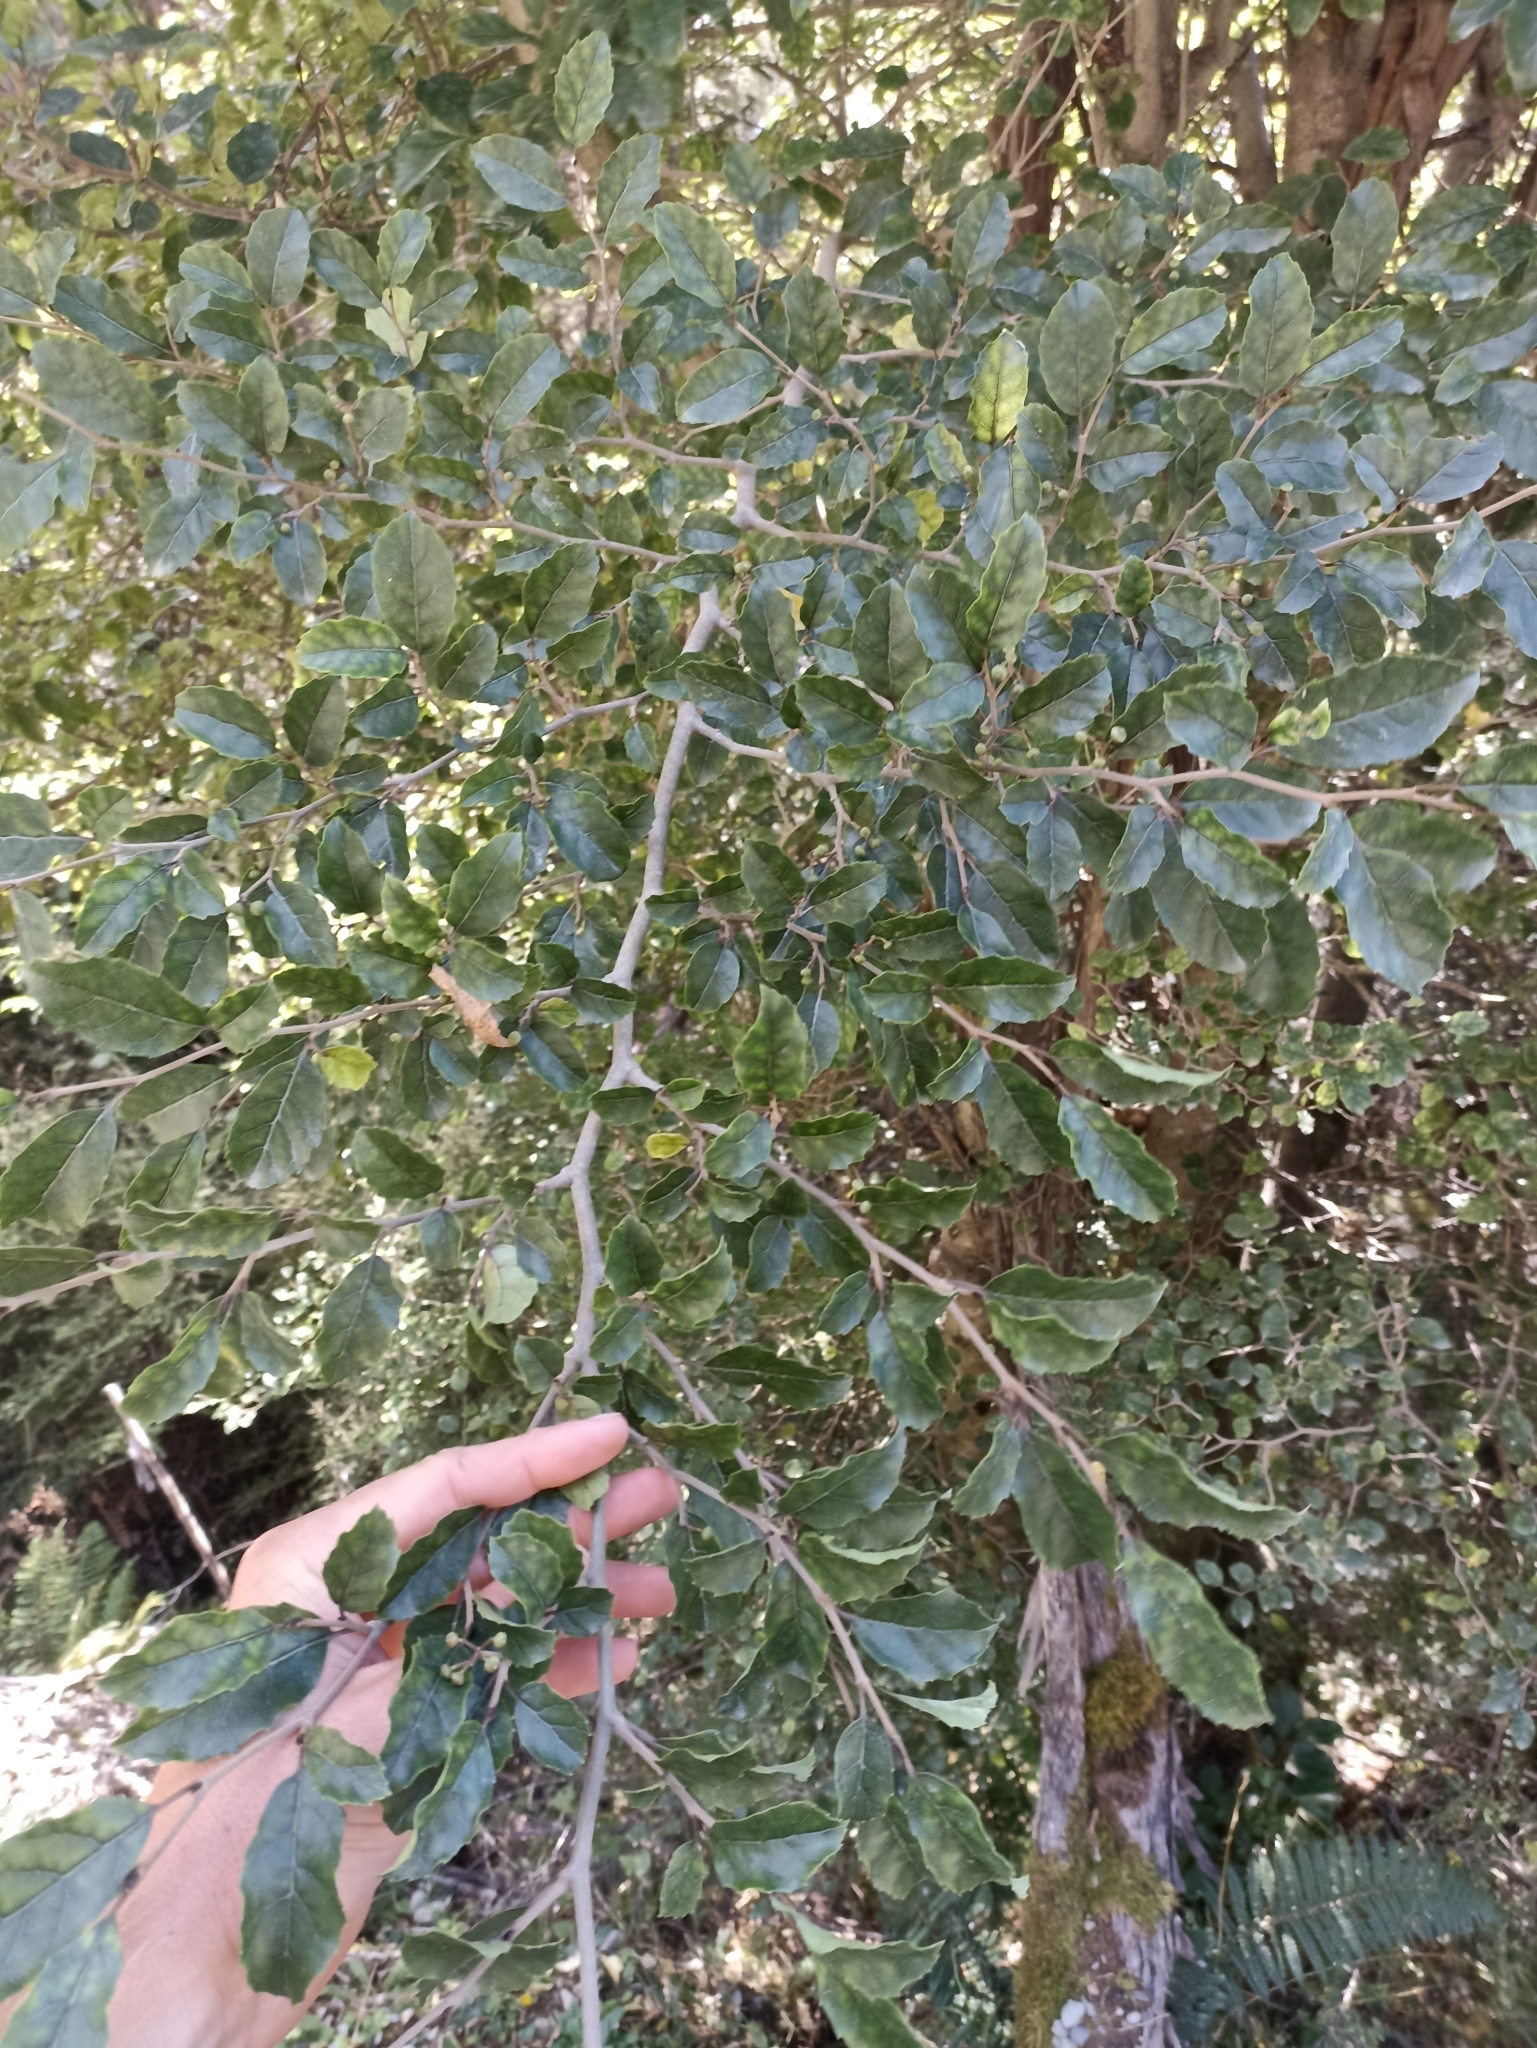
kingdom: Plantae
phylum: Tracheophyta
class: Magnoliopsida
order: Asterales
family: Rousseaceae
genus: Carpodetus
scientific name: Carpodetus serratus
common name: White mapau
